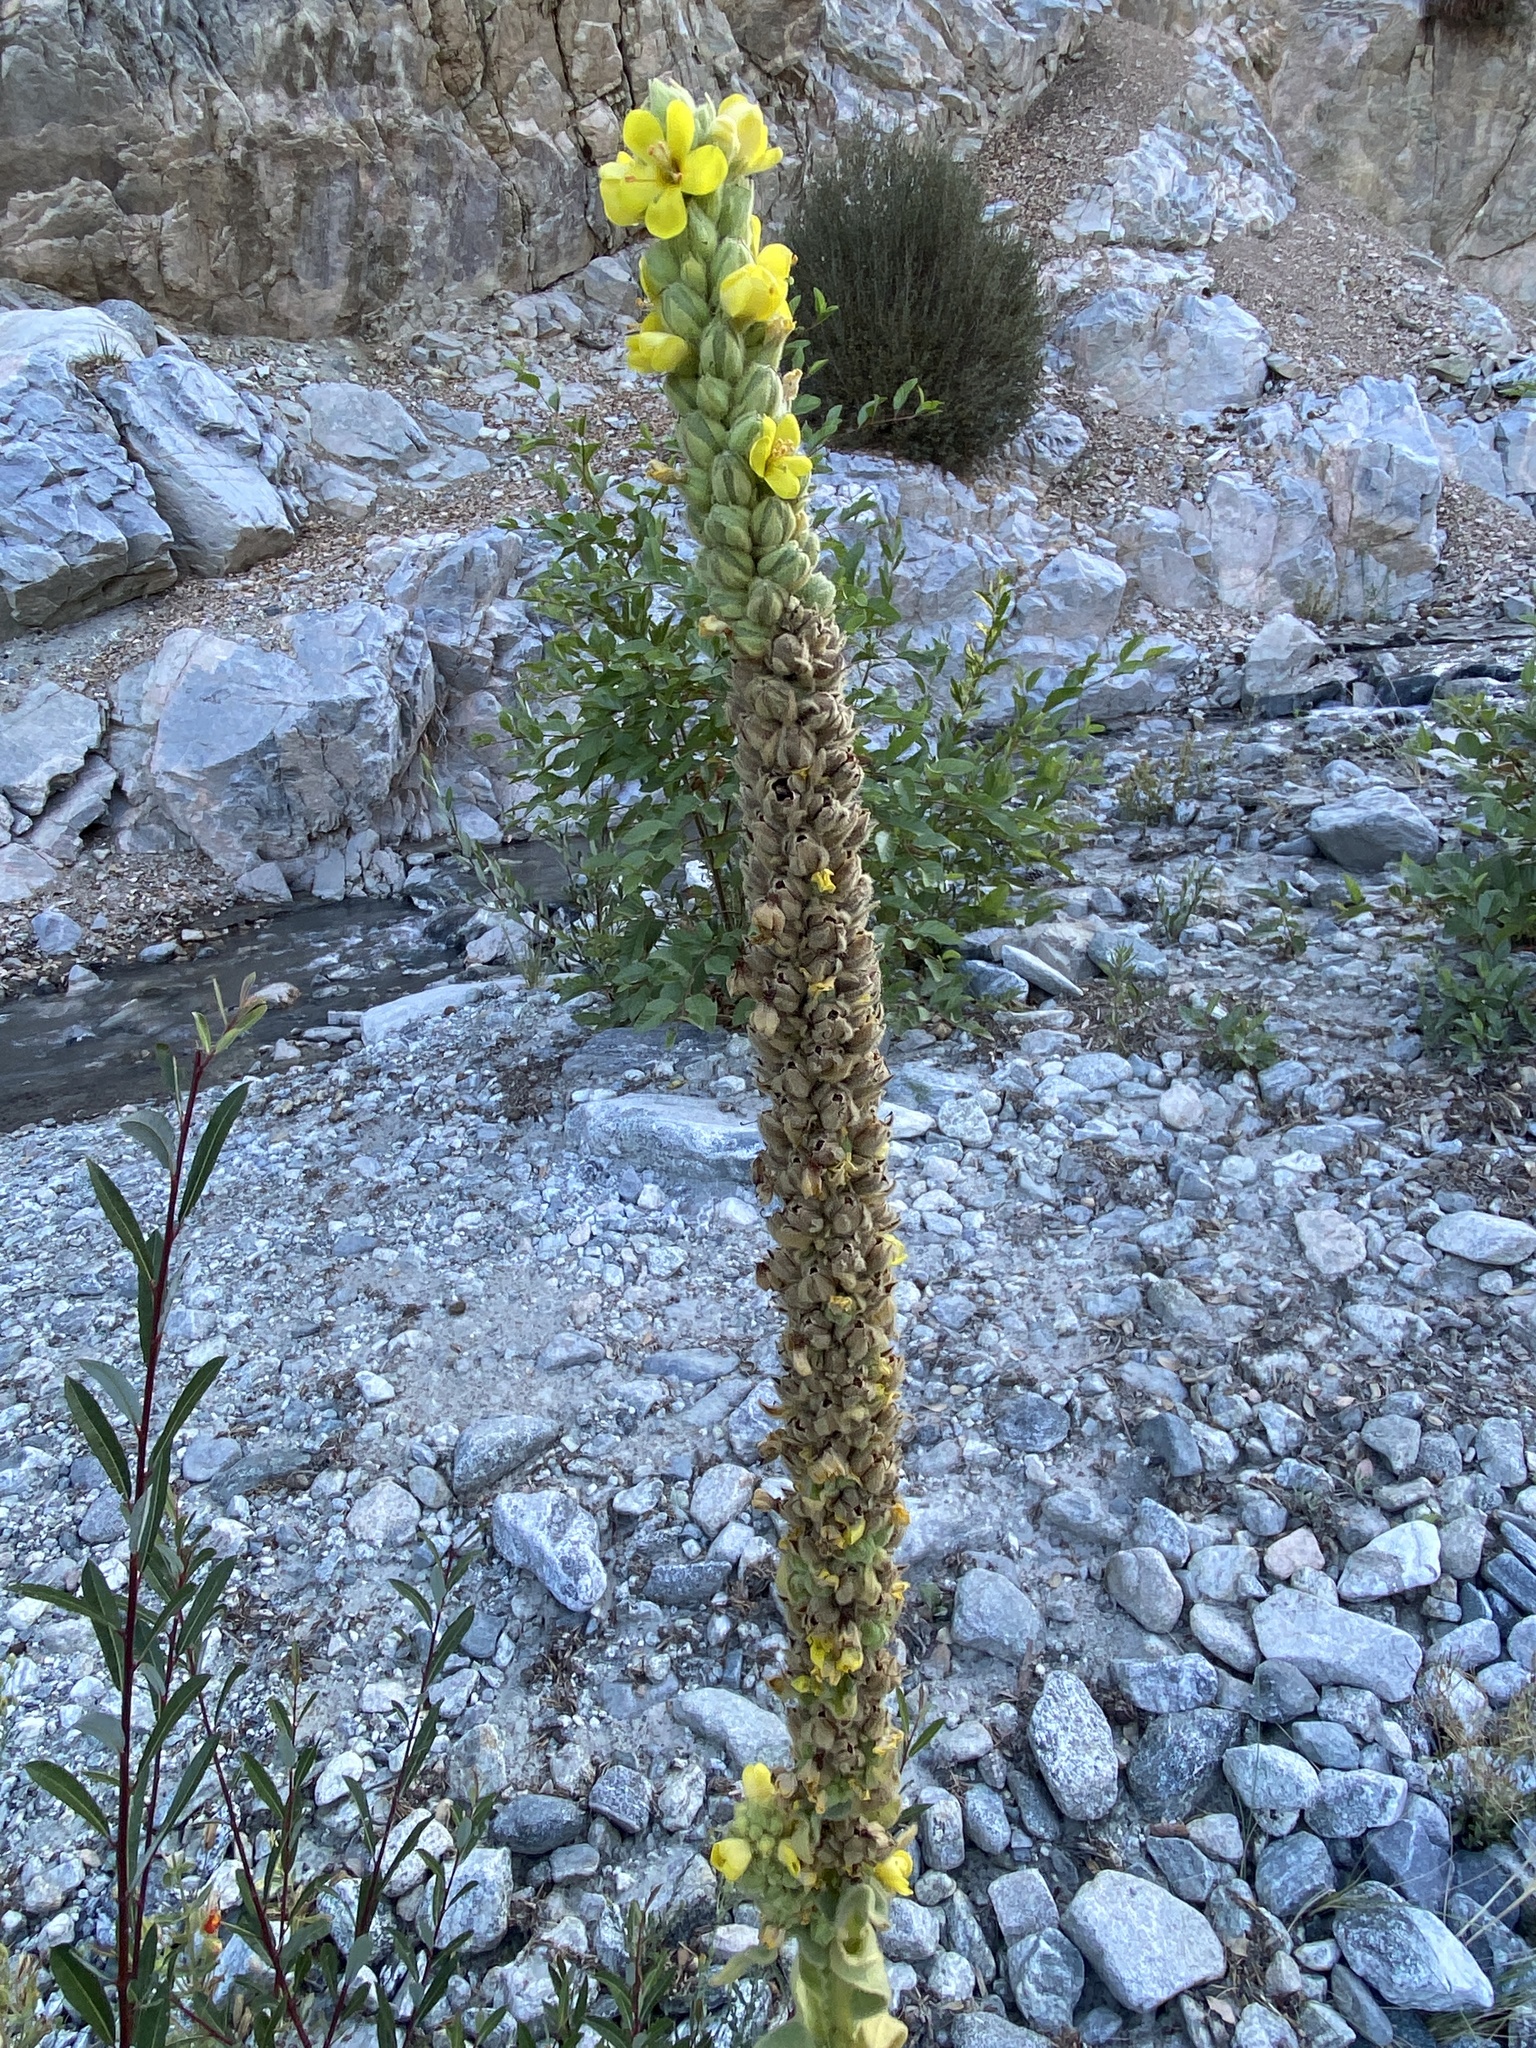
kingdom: Plantae
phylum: Tracheophyta
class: Magnoliopsida
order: Lamiales
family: Scrophulariaceae
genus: Verbascum
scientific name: Verbascum thapsus
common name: Common mullein
